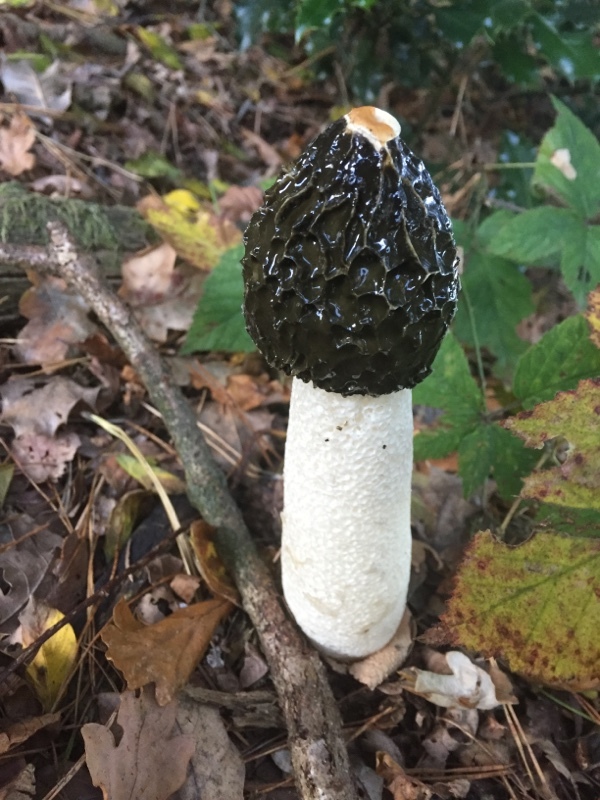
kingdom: Fungi
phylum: Basidiomycota
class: Agaricomycetes
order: Phallales
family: Phallaceae
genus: Phallus
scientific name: Phallus impudicus
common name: Common stinkhorn
